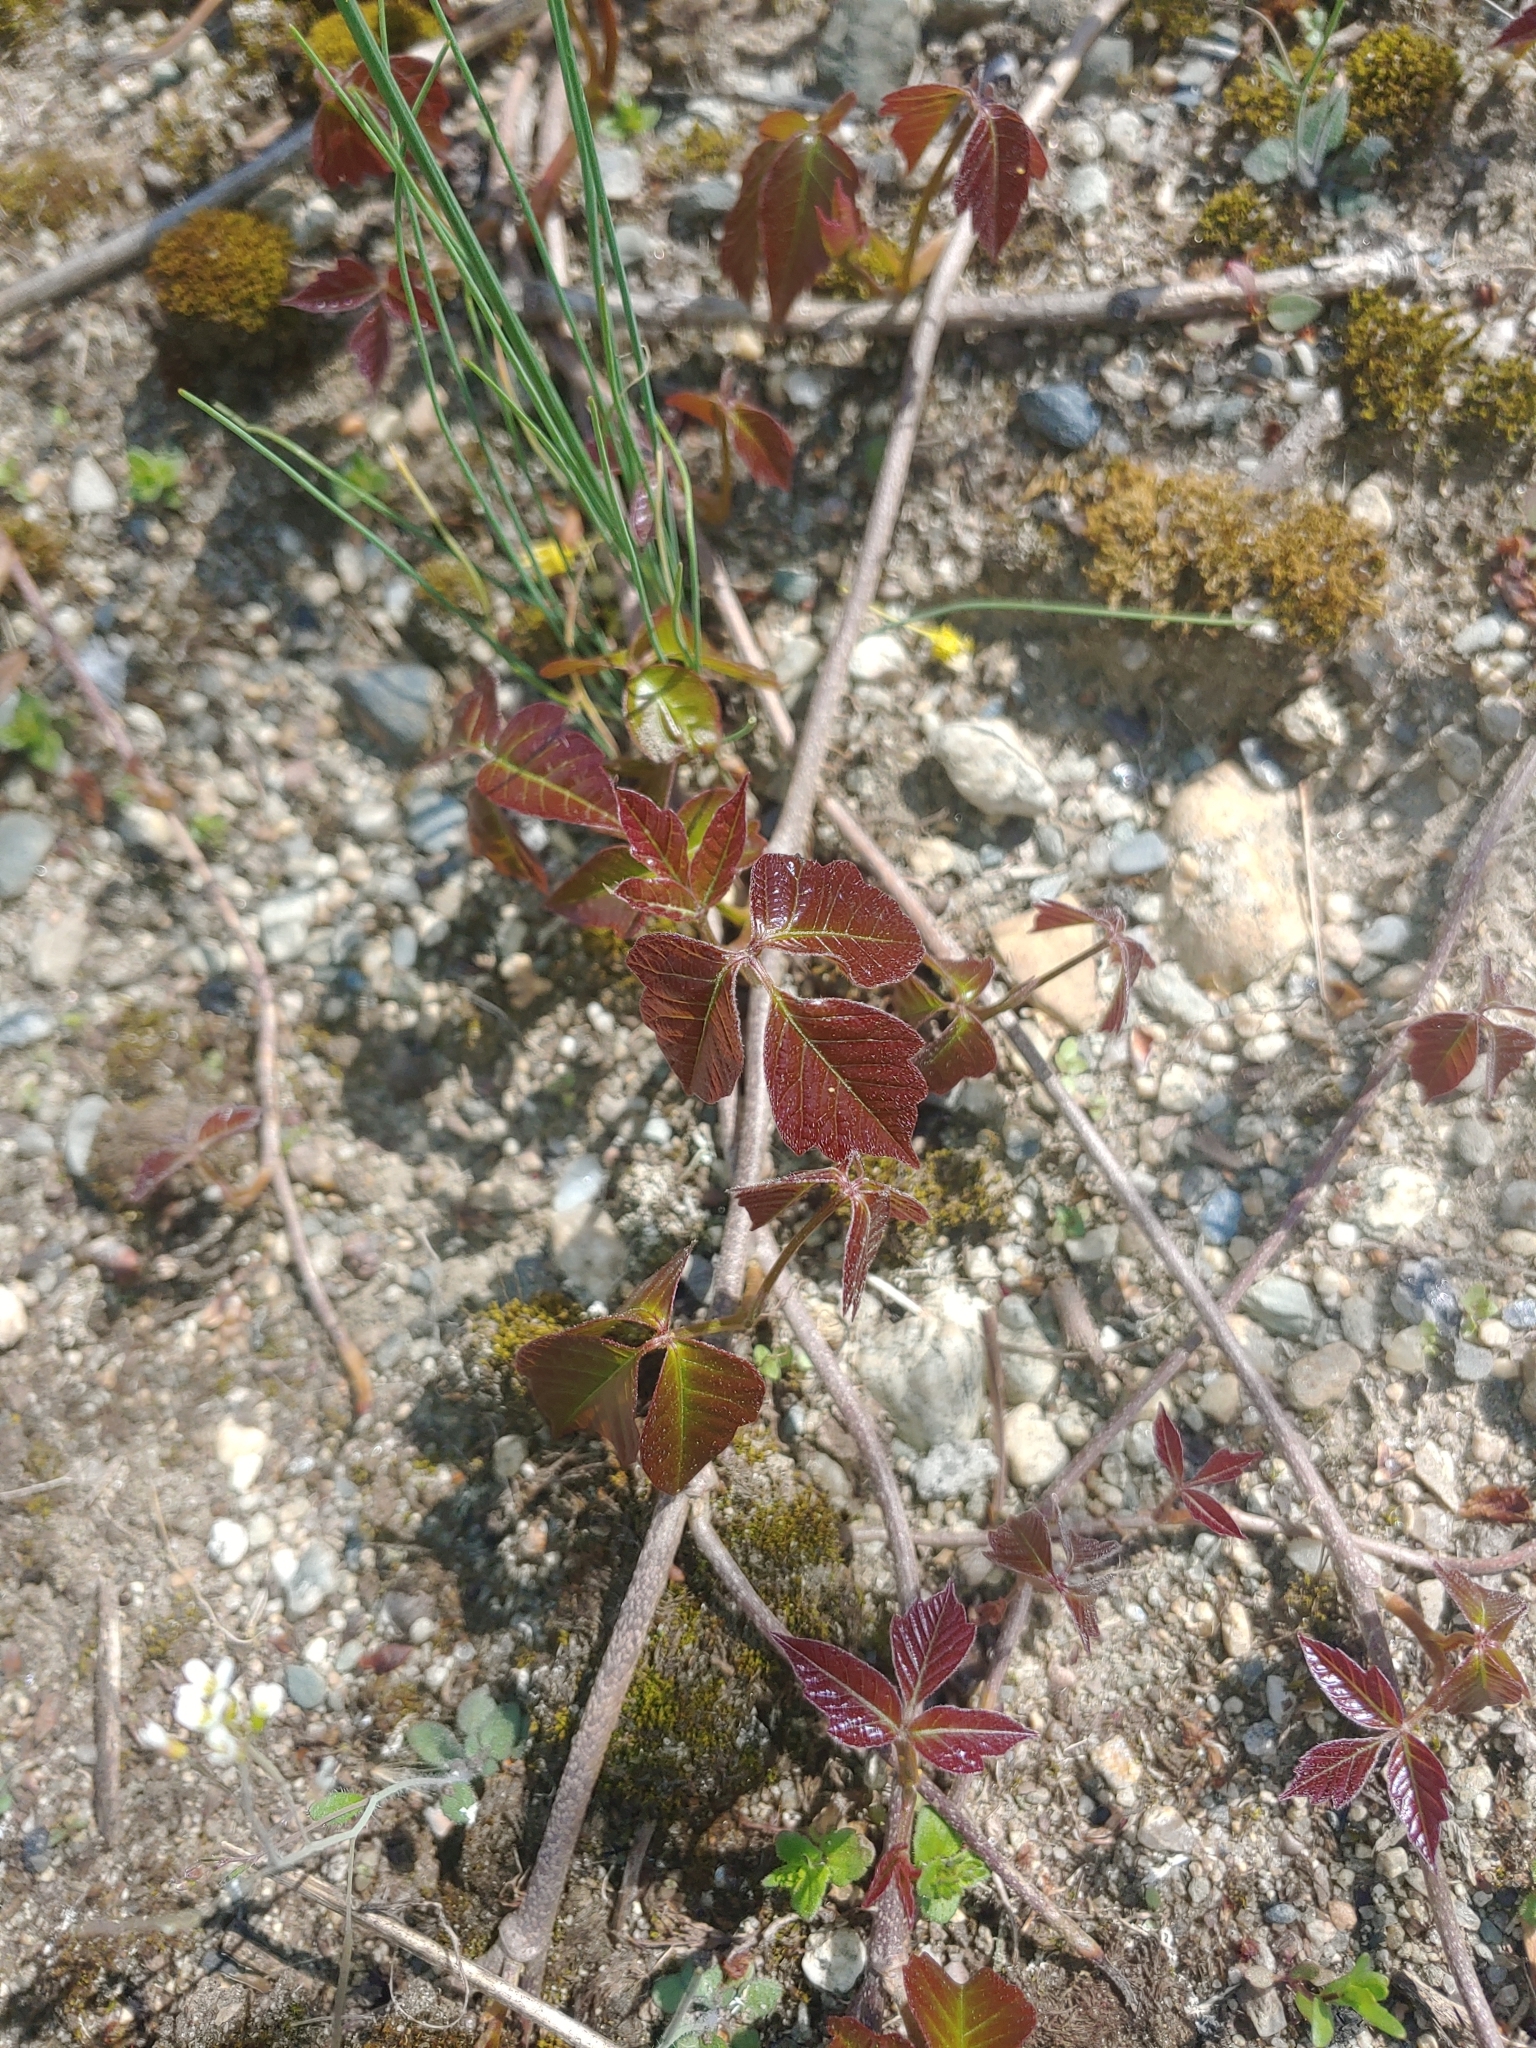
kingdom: Plantae
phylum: Tracheophyta
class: Magnoliopsida
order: Sapindales
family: Anacardiaceae
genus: Toxicodendron
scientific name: Toxicodendron radicans
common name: Poison ivy
